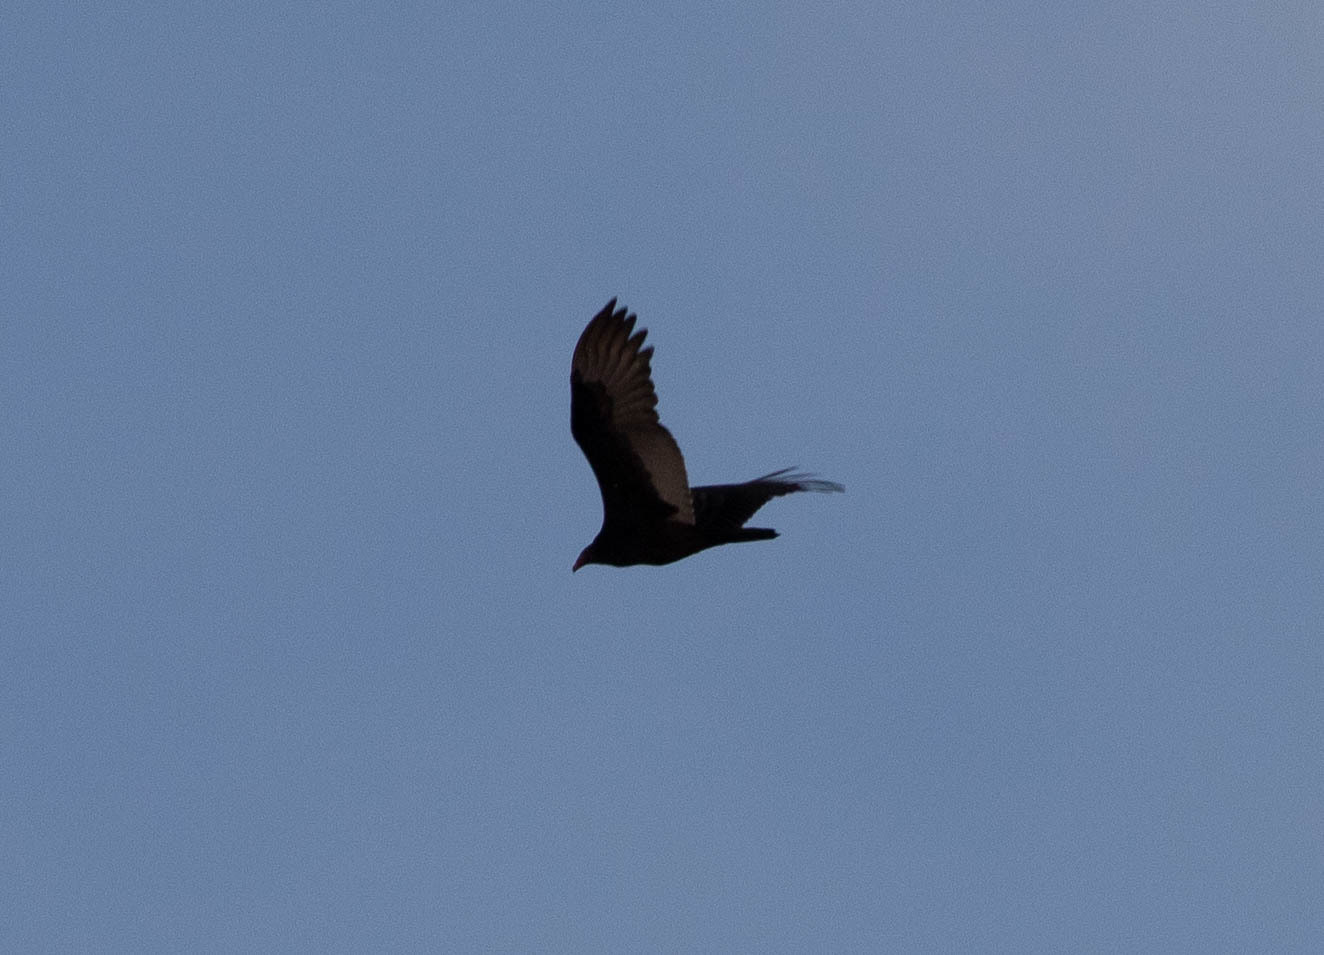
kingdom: Animalia
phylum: Chordata
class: Aves
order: Accipitriformes
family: Cathartidae
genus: Cathartes
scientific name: Cathartes aura
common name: Turkey vulture
